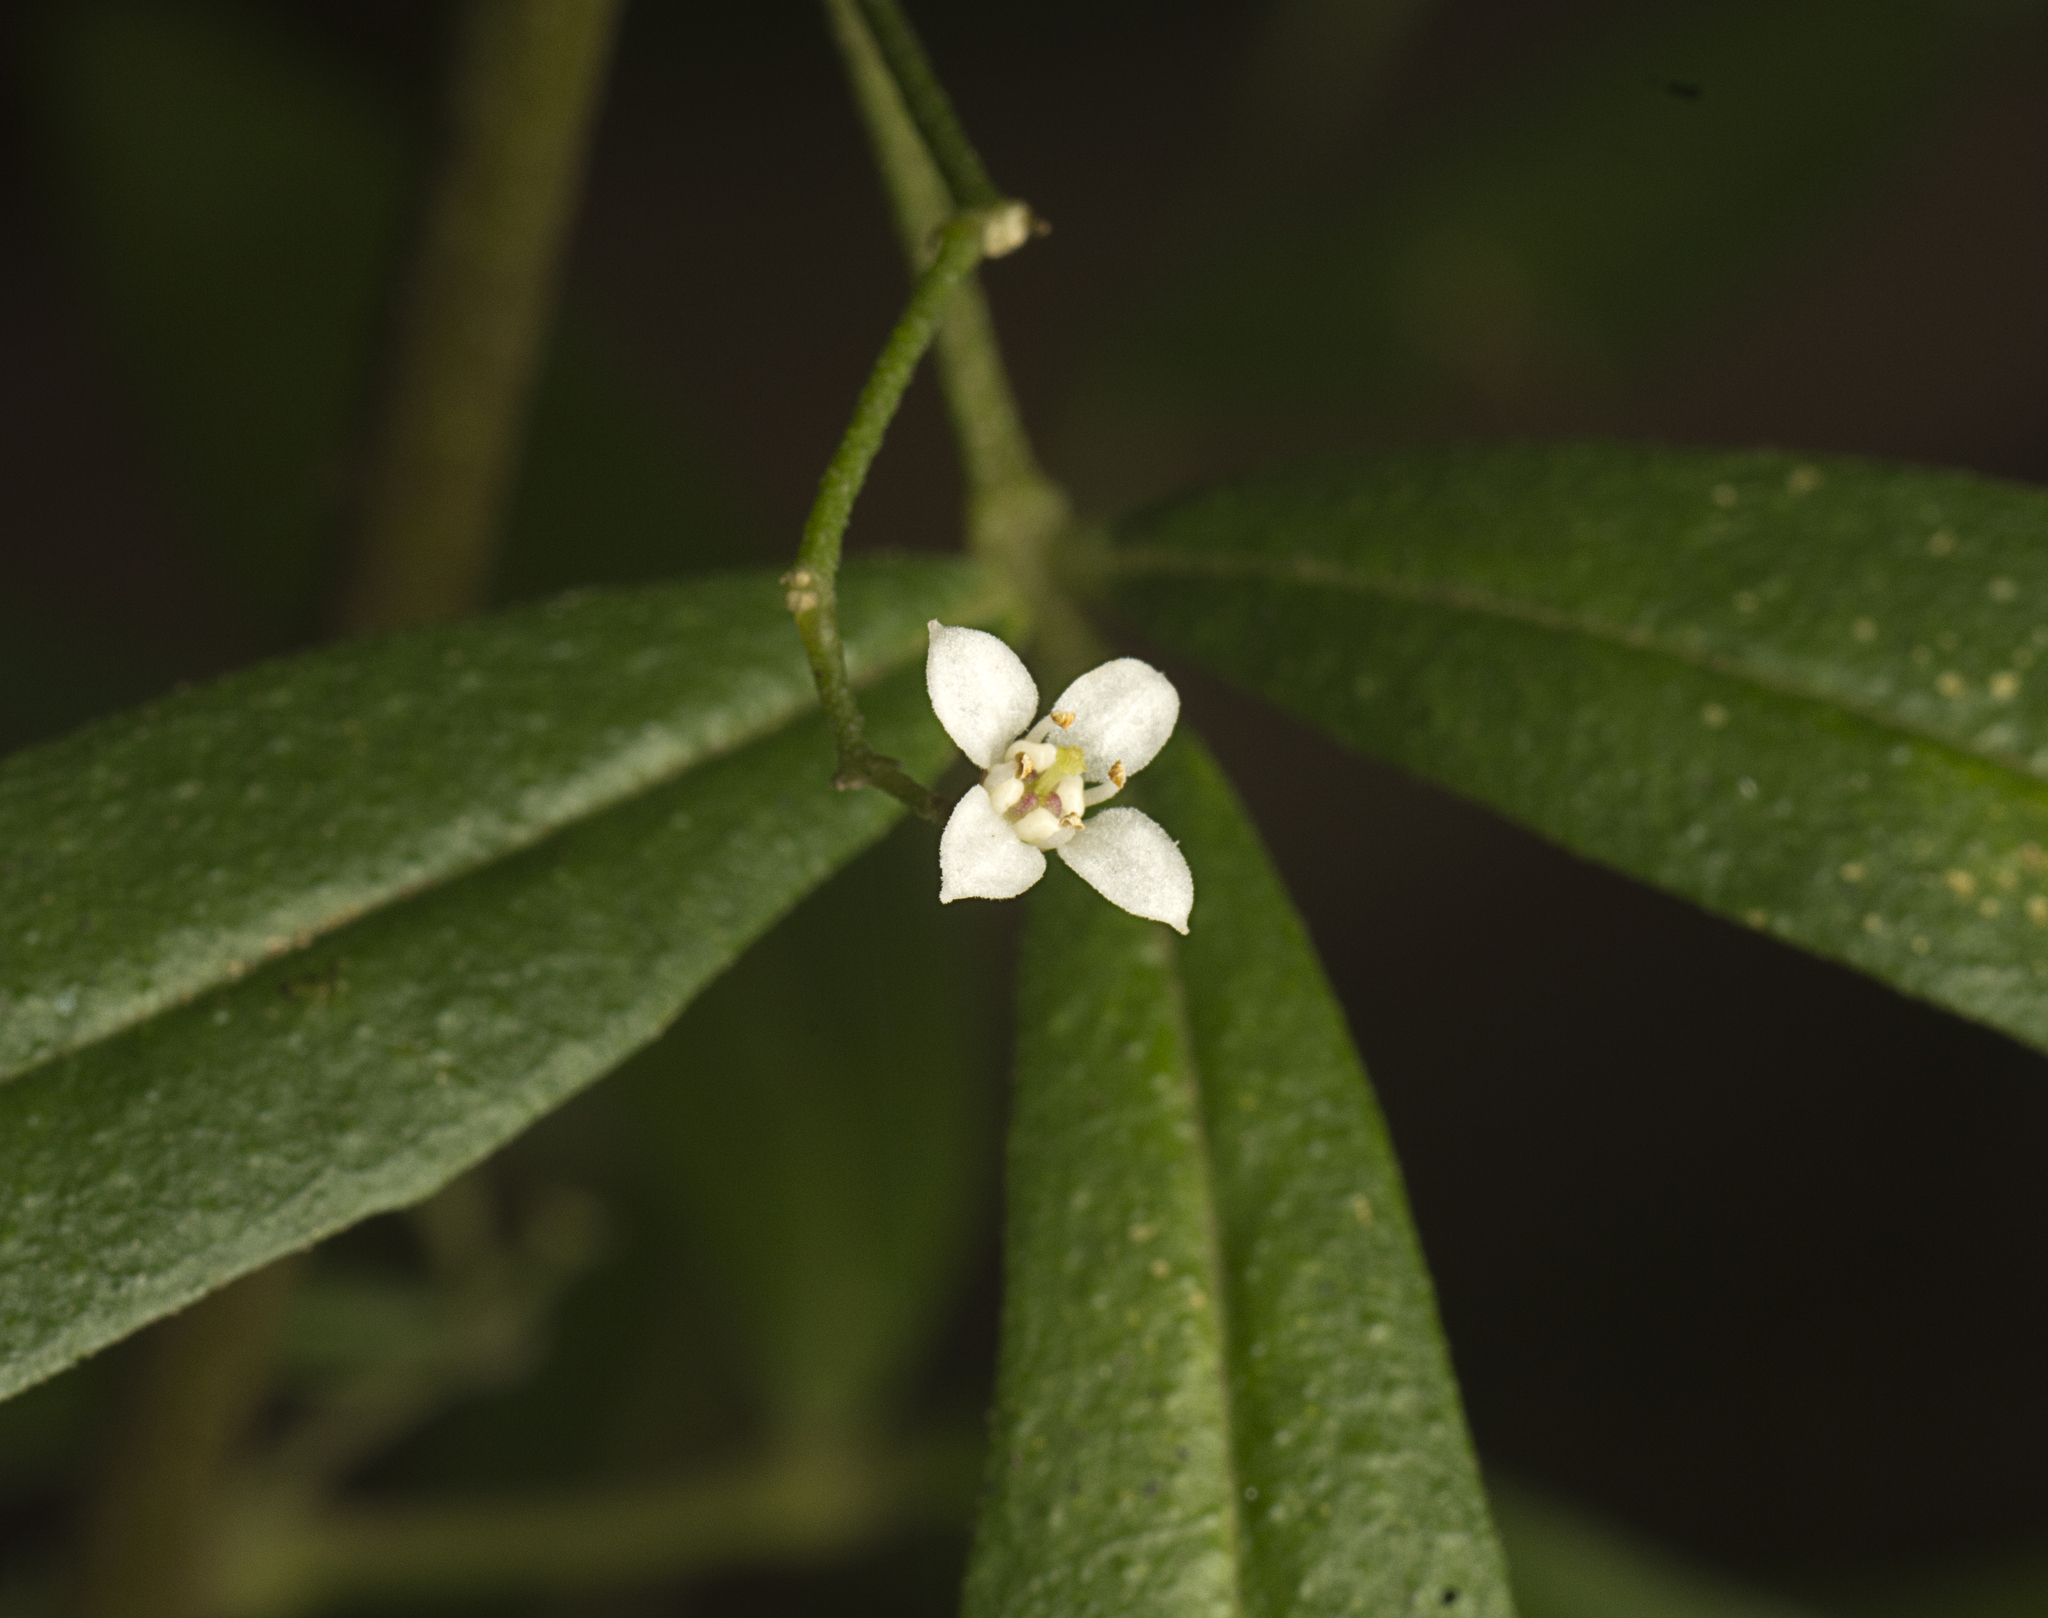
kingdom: Plantae
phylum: Tracheophyta
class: Magnoliopsida
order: Sapindales
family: Rutaceae
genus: Zieria
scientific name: Zieria smithii
